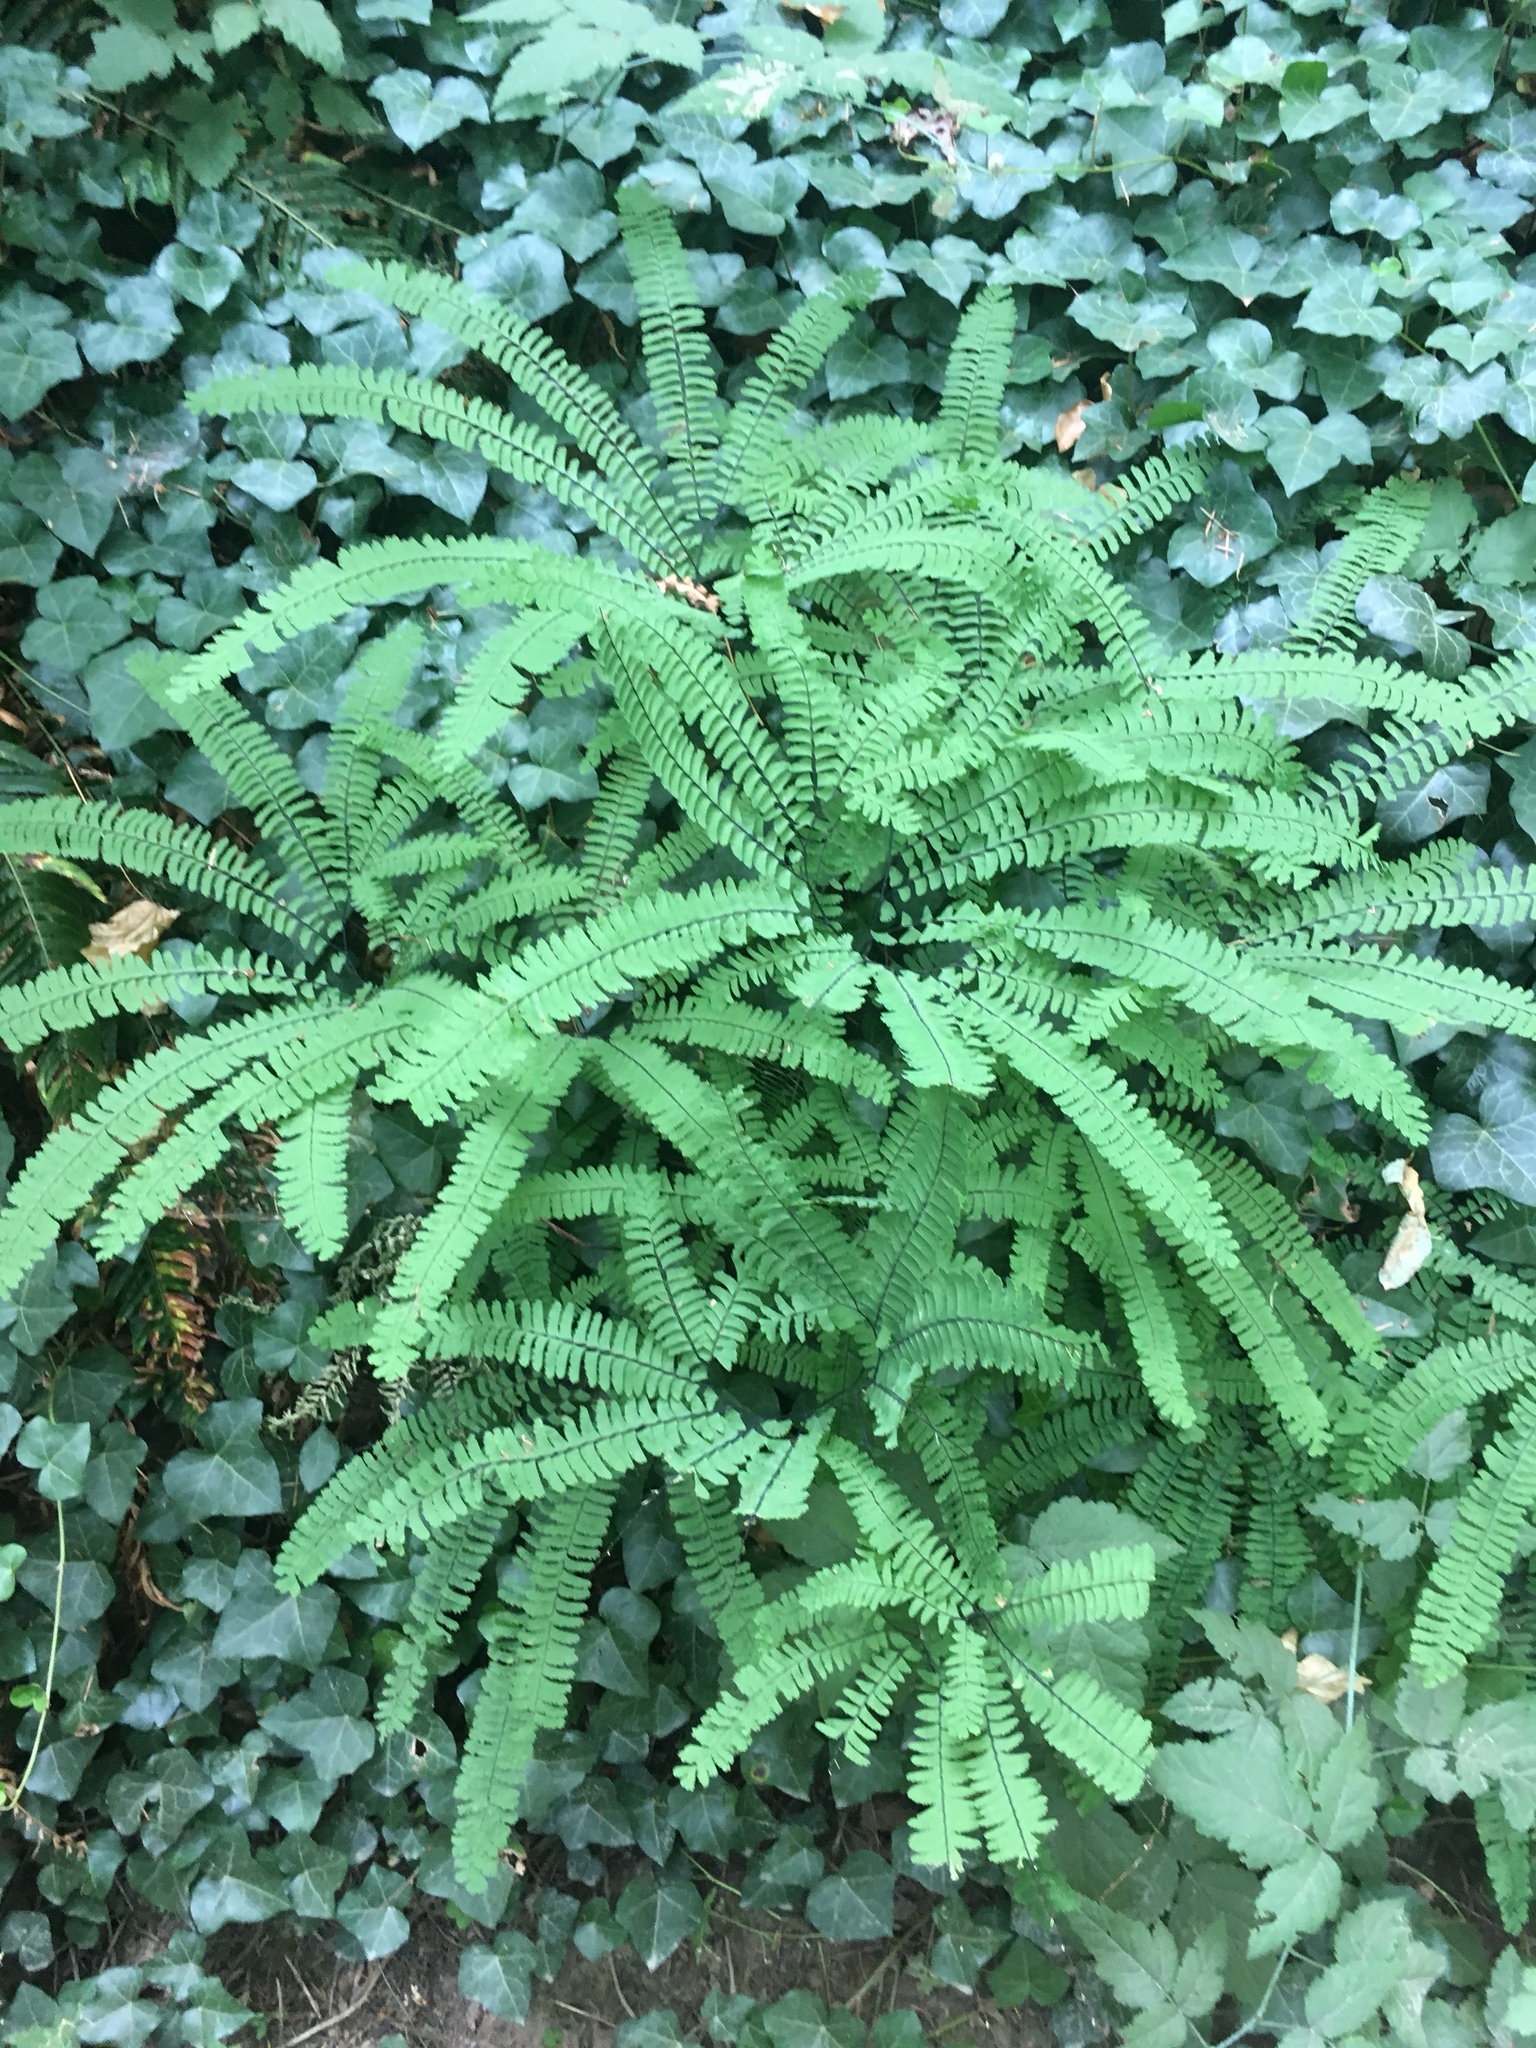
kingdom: Plantae
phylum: Tracheophyta
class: Polypodiopsida
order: Polypodiales
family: Pteridaceae
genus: Adiantum
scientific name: Adiantum aleuticum
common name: Aleutian maidenhair fern
